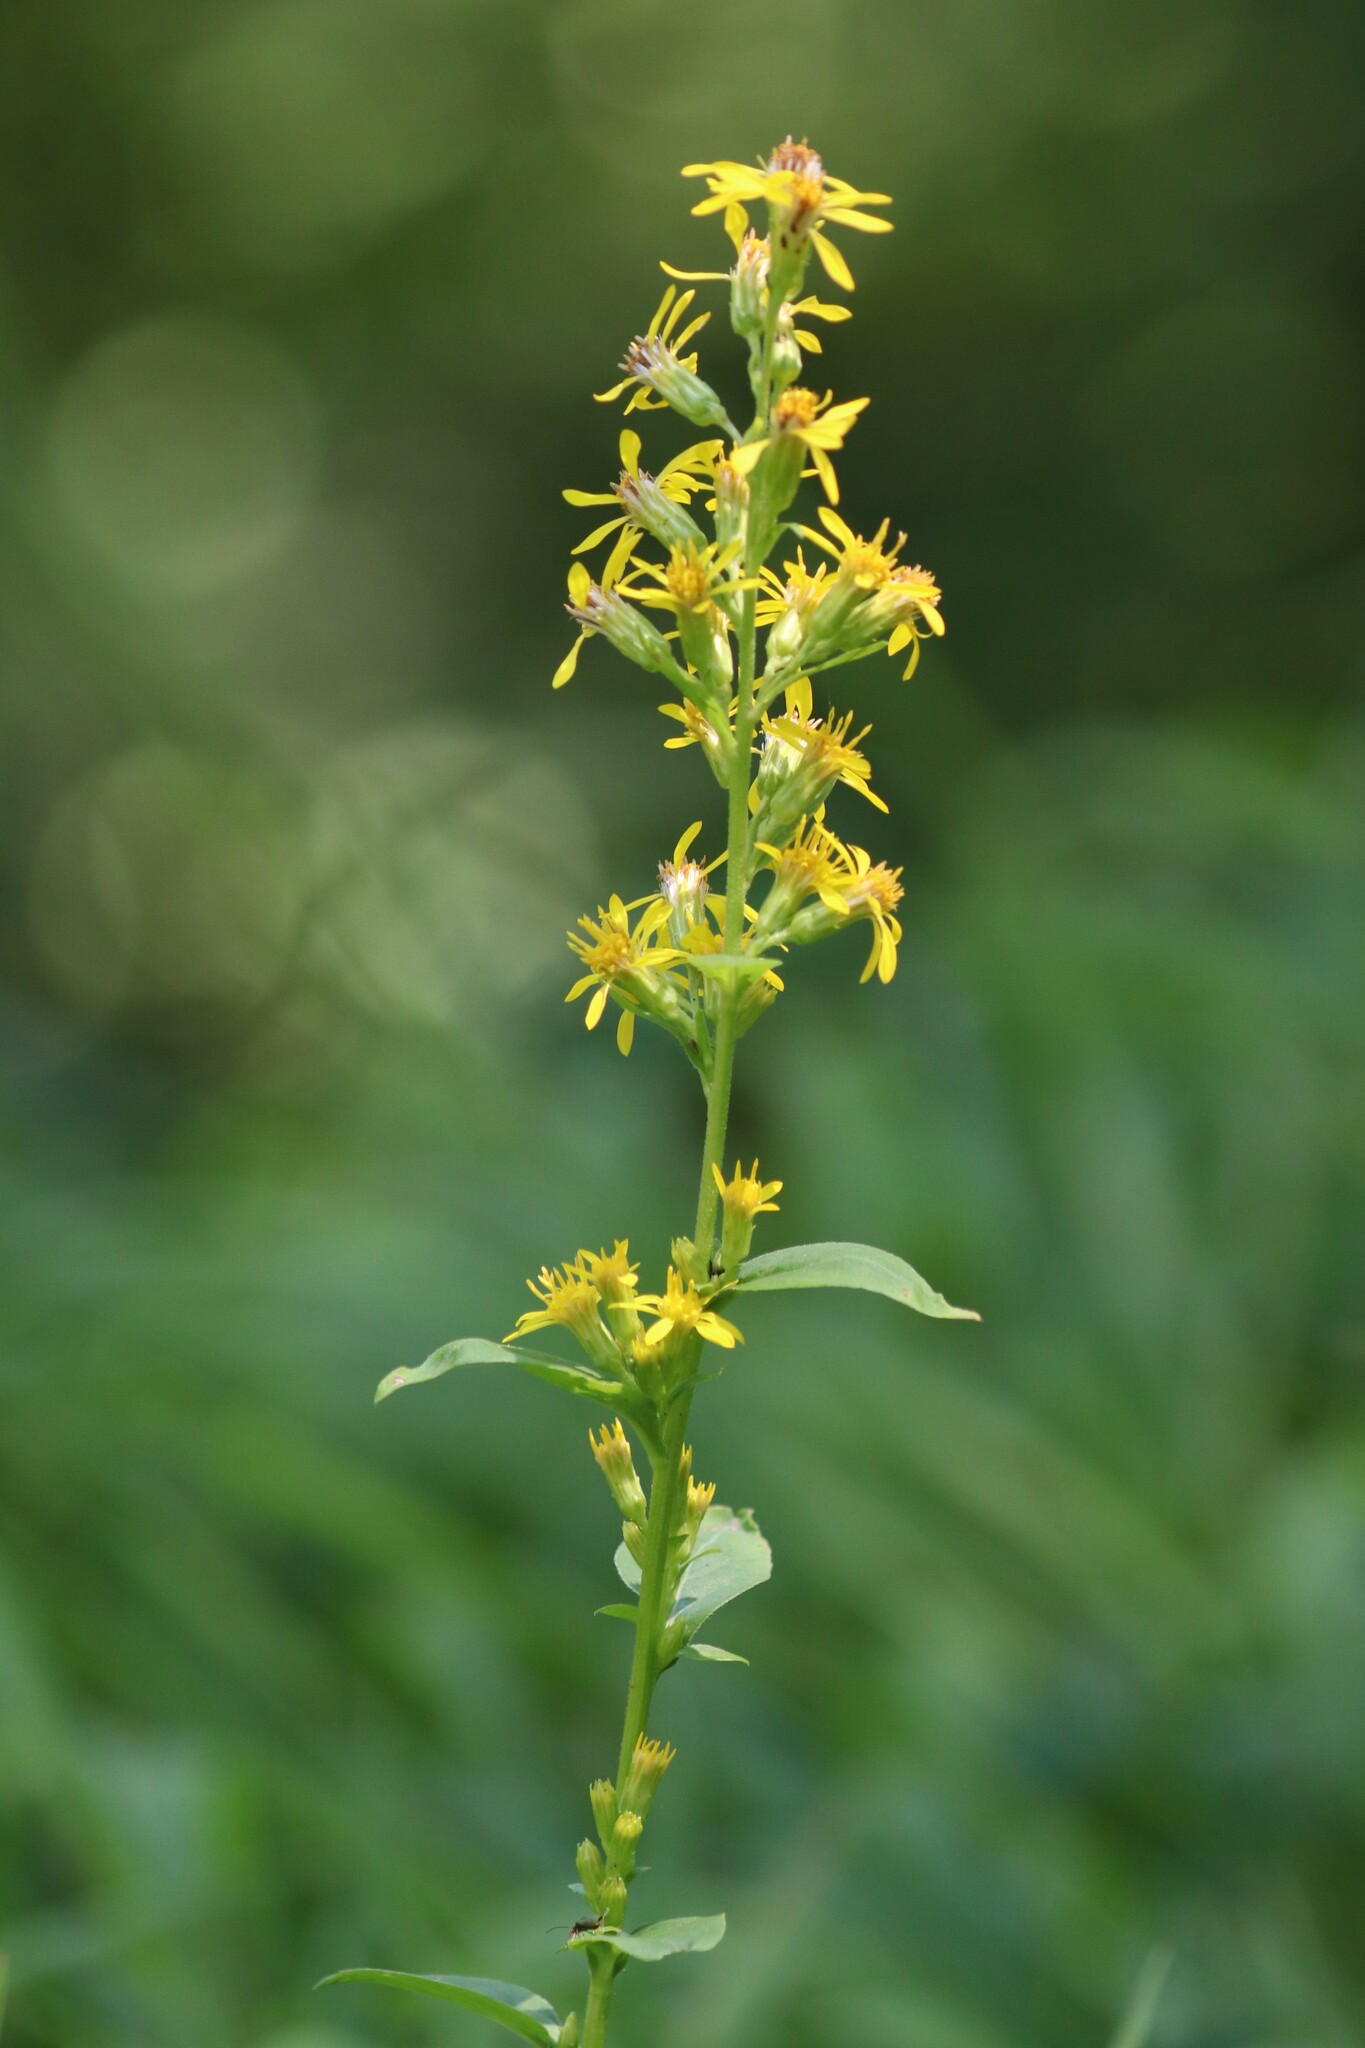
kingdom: Plantae
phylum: Tracheophyta
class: Magnoliopsida
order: Asterales
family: Asteraceae
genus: Solidago
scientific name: Solidago virgaurea
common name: Goldenrod
